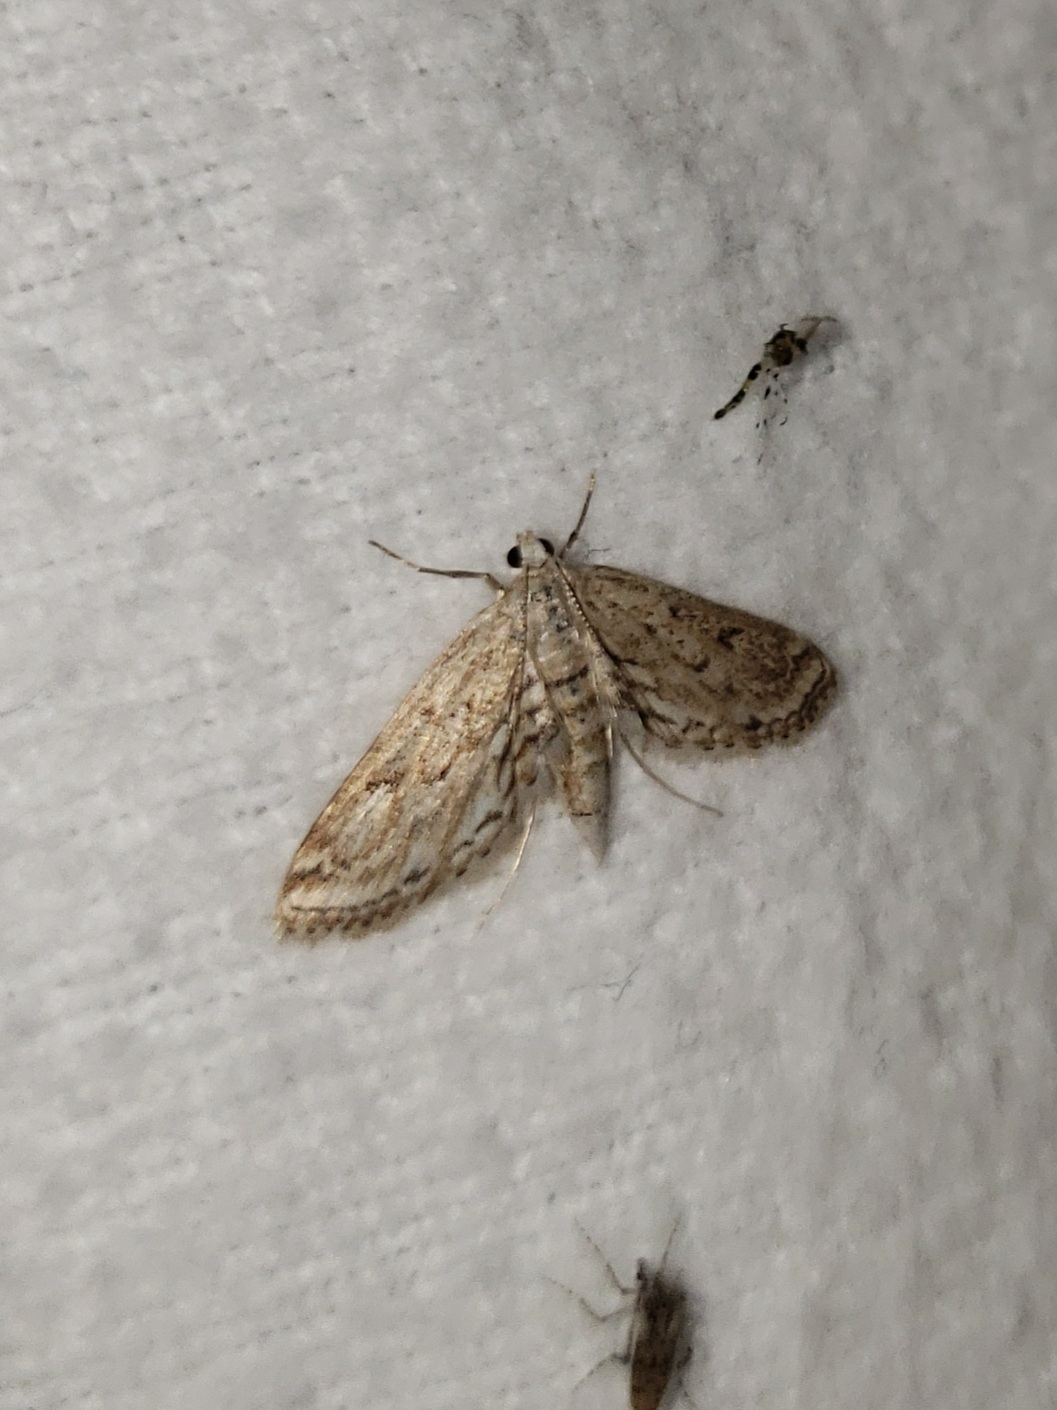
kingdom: Animalia
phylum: Arthropoda
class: Insecta
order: Lepidoptera
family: Crambidae
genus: Parapoynx
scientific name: Parapoynx allionealis
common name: Bladderwort casemaker
